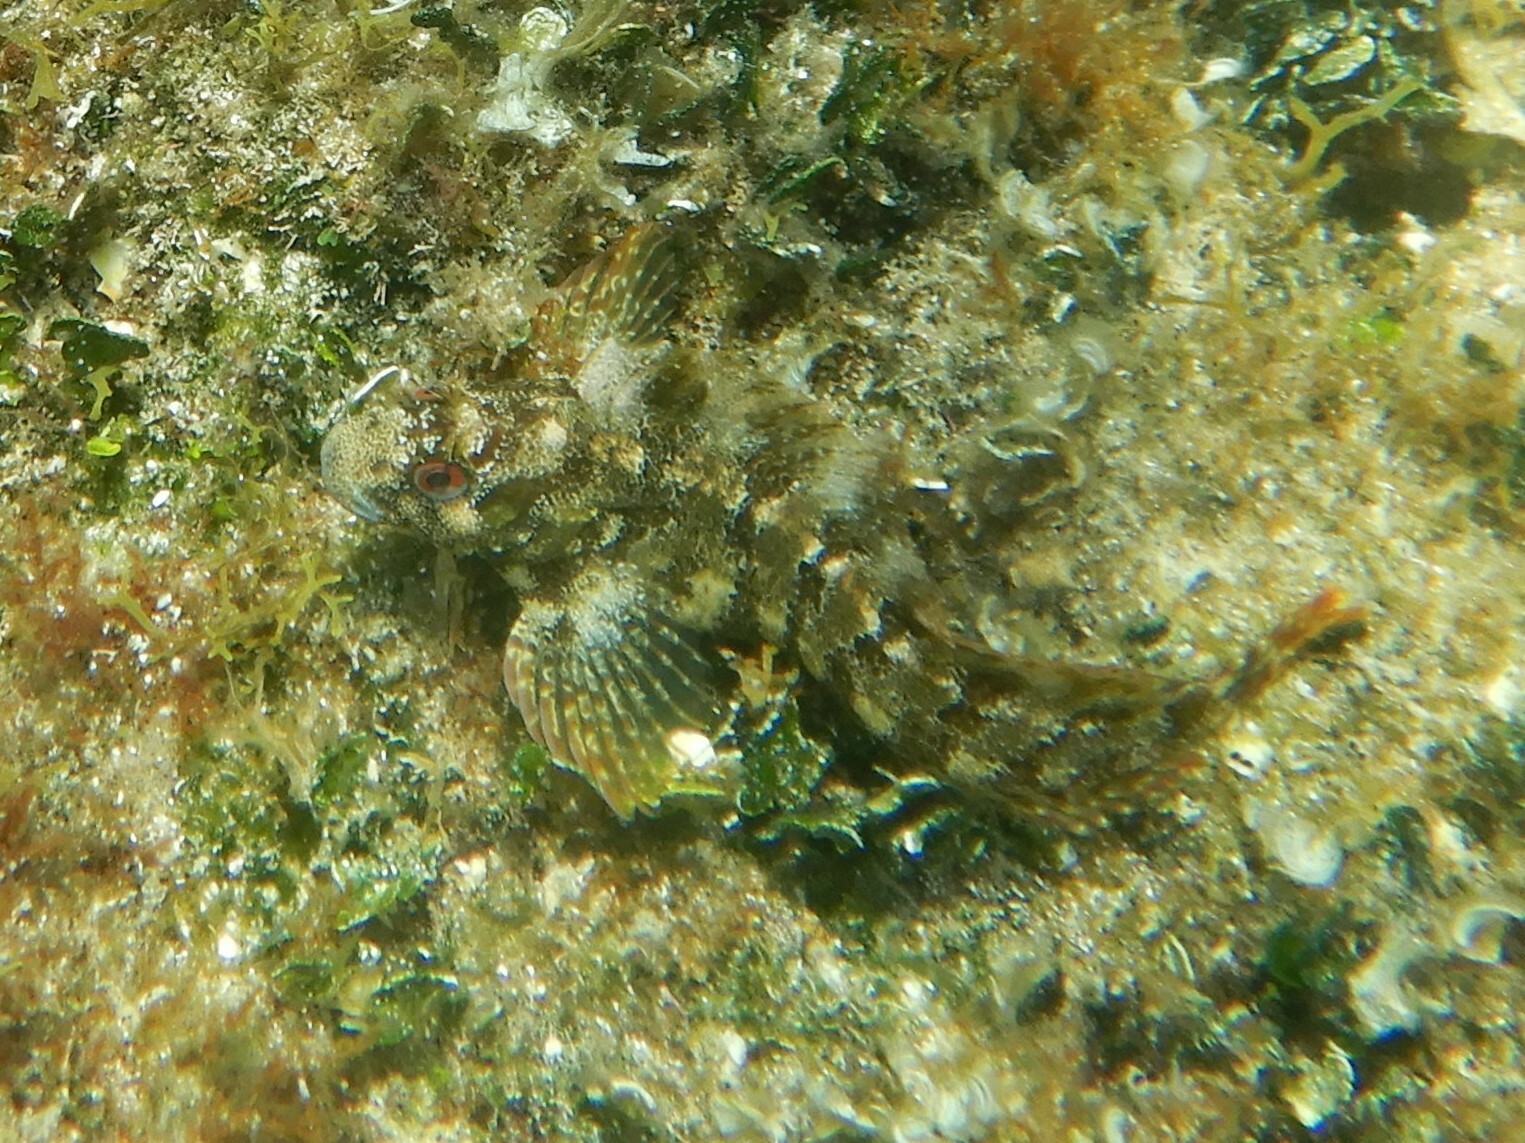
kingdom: Animalia
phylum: Chordata
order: Perciformes
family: Blenniidae
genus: Parablennius
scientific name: Parablennius gattorugine
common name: Tompot blenny
